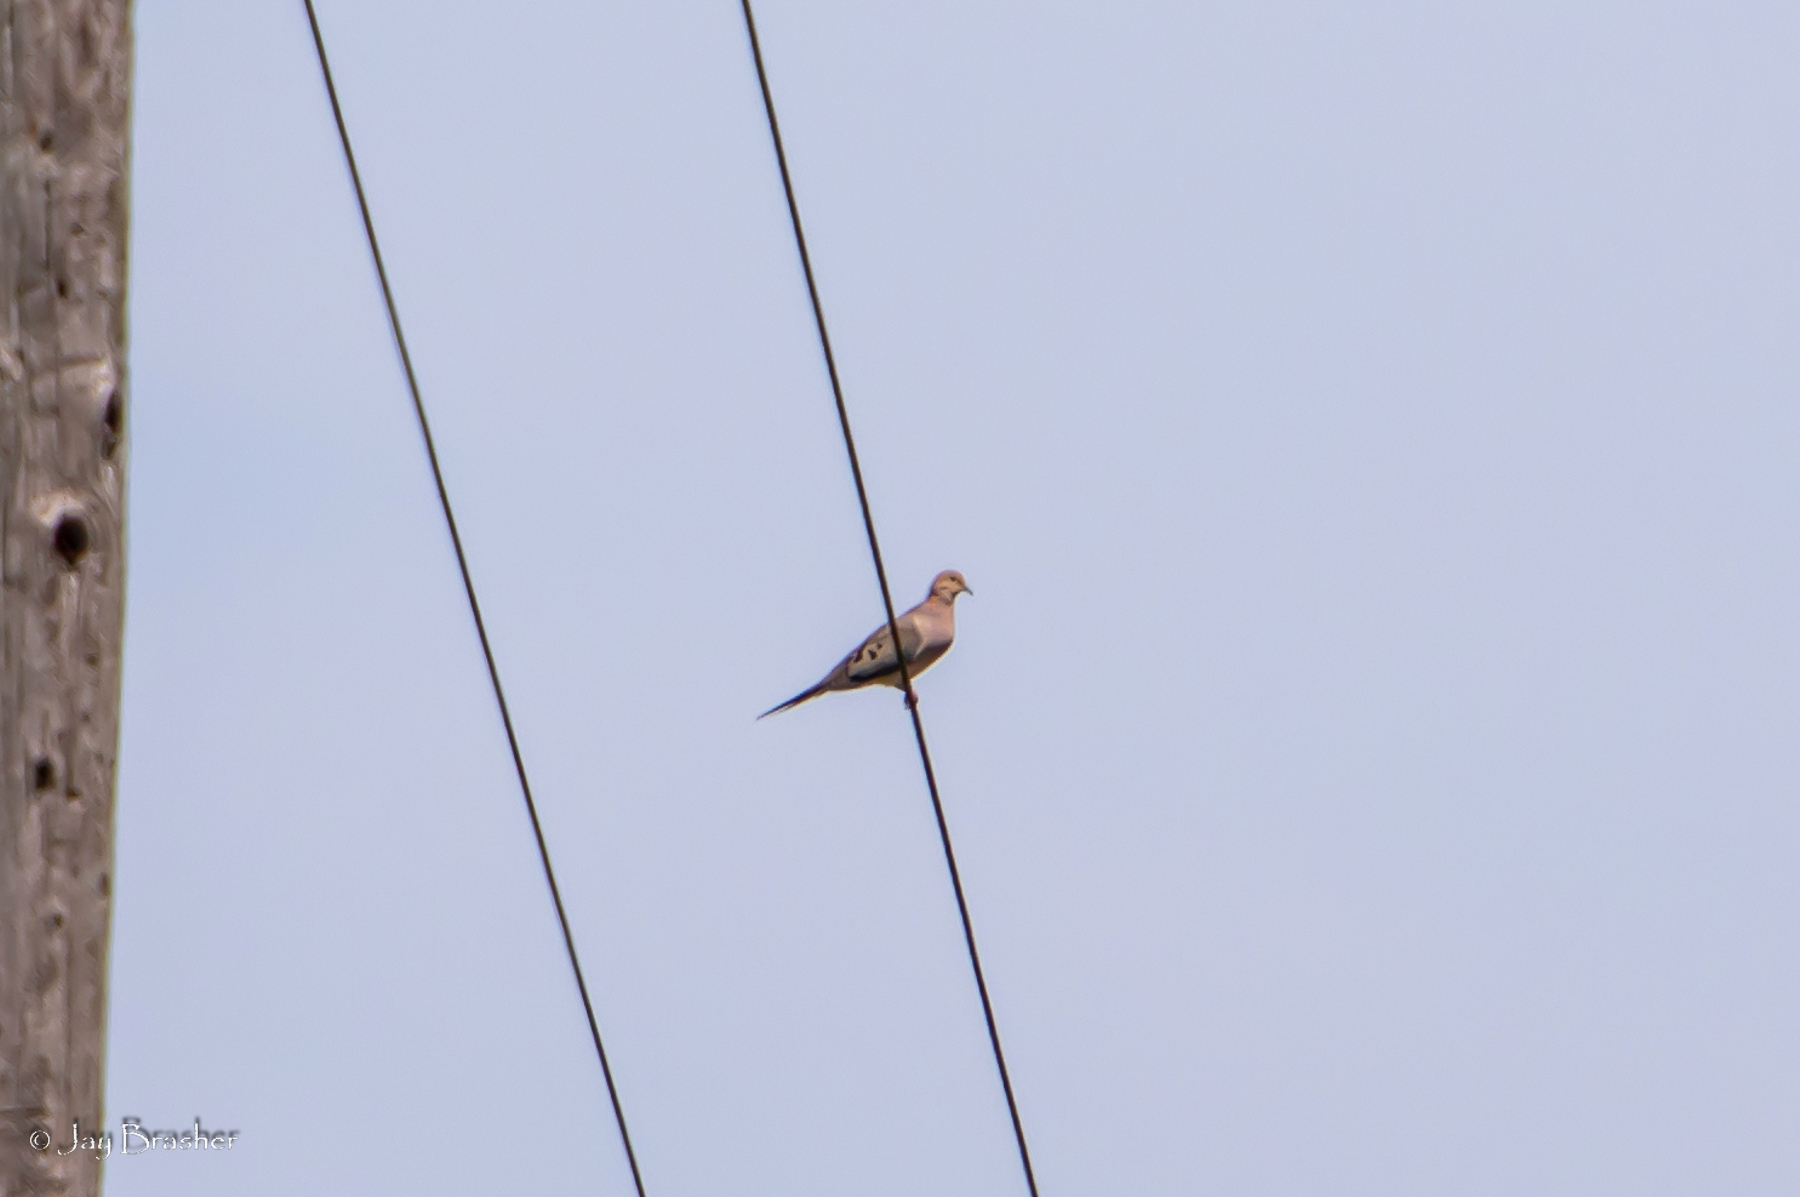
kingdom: Animalia
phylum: Chordata
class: Aves
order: Columbiformes
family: Columbidae
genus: Zenaida
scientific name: Zenaida macroura
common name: Mourning dove
